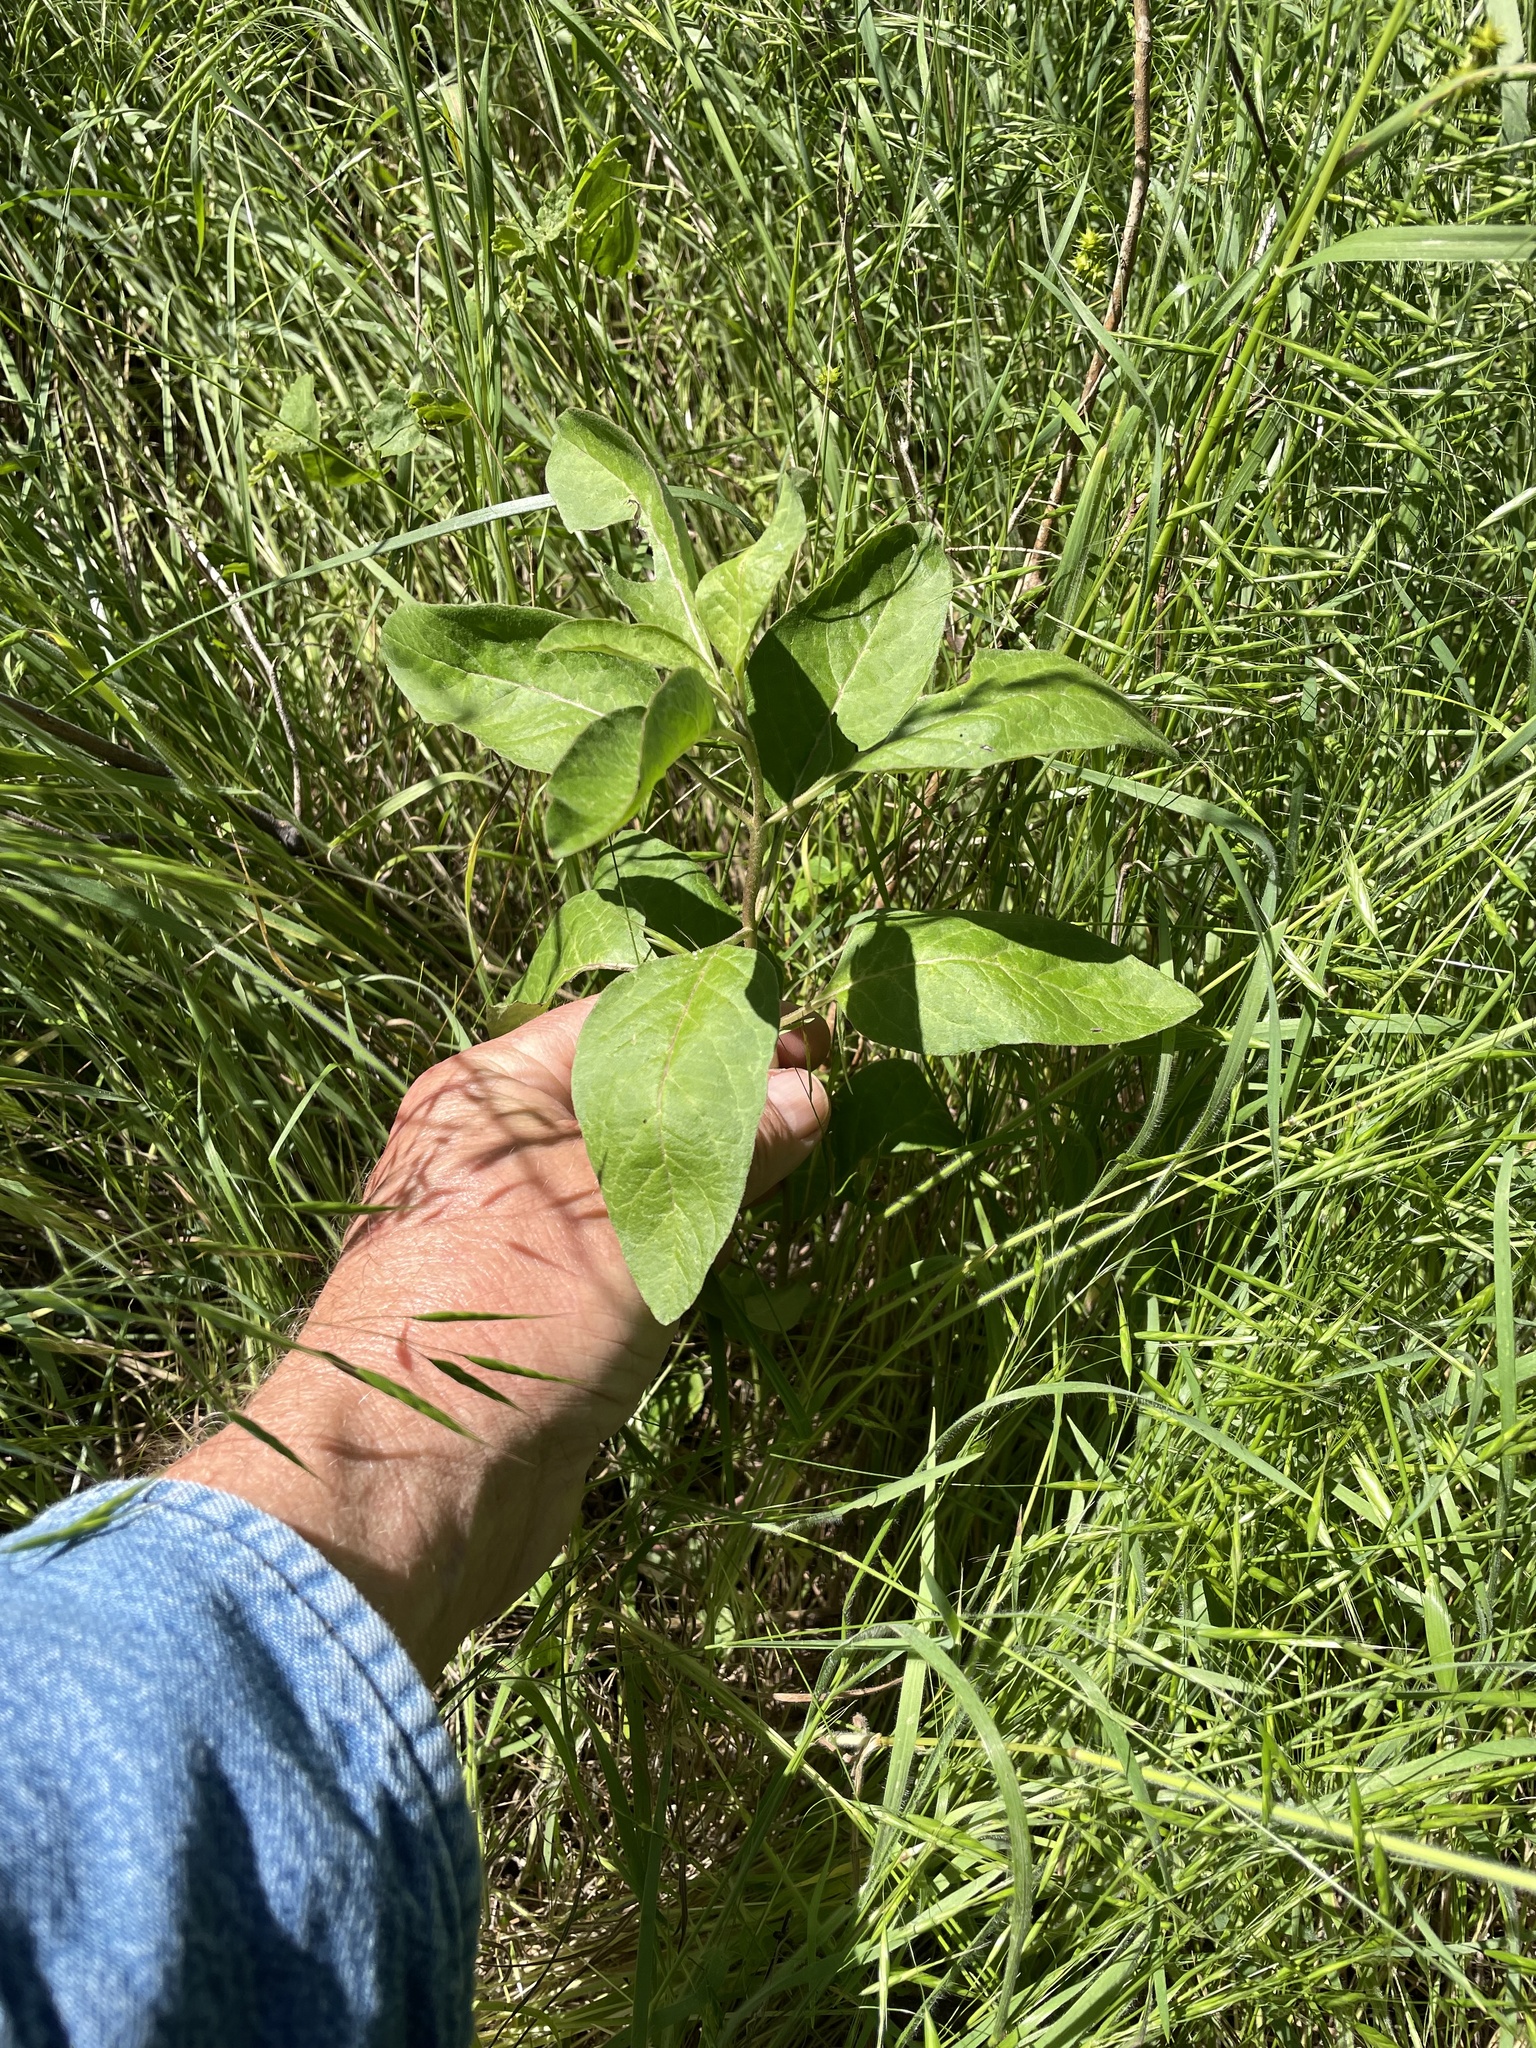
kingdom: Plantae
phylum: Tracheophyta
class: Magnoliopsida
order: Gentianales
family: Apocynaceae
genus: Asclepias
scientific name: Asclepias oenotheroides
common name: Zizotes milkweed
